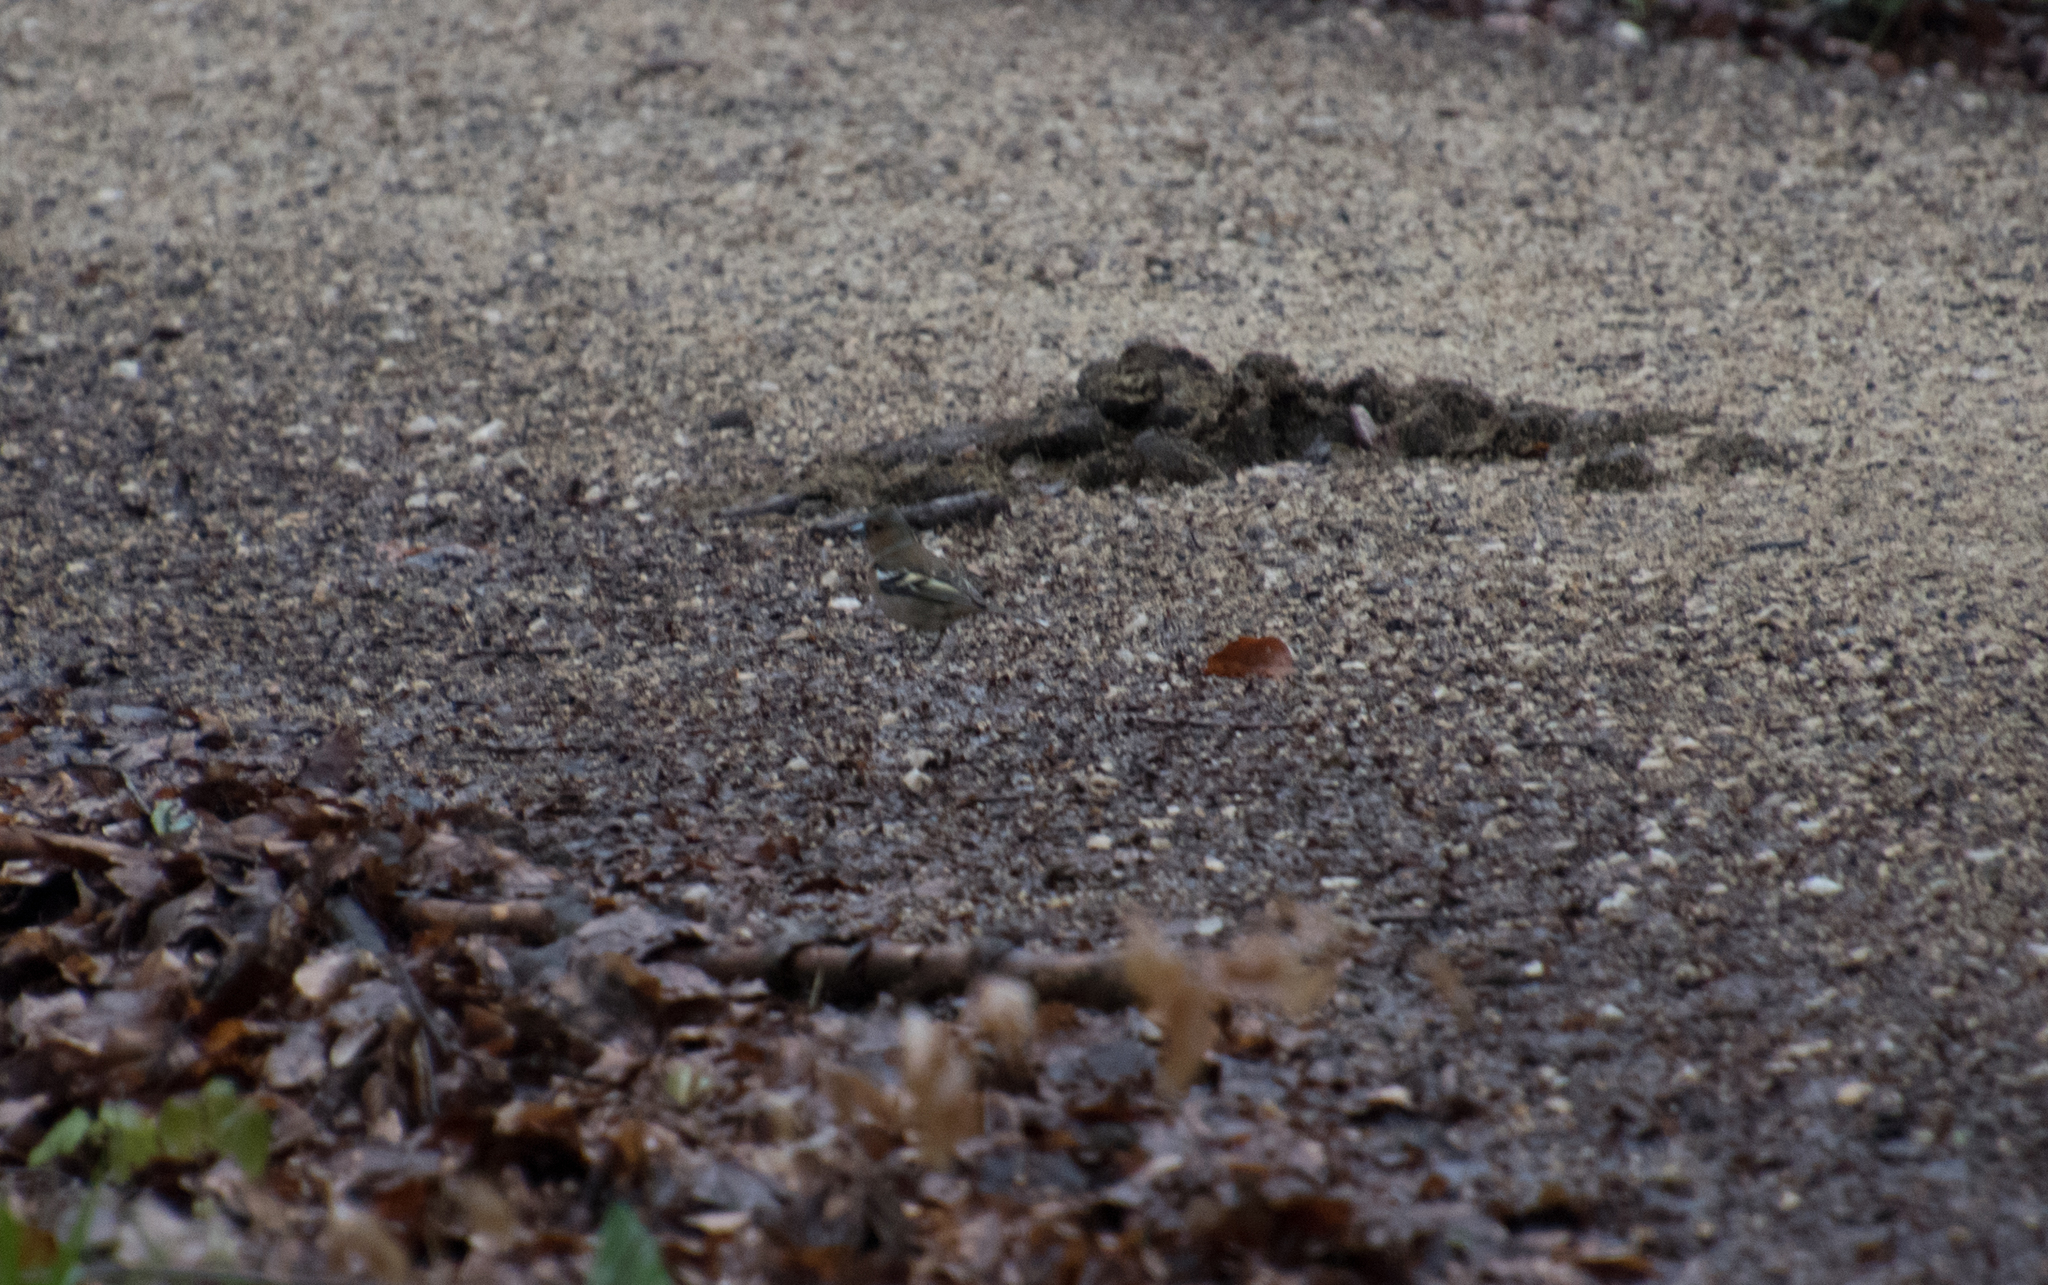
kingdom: Animalia
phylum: Chordata
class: Aves
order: Passeriformes
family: Fringillidae
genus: Fringilla
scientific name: Fringilla coelebs
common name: Common chaffinch
